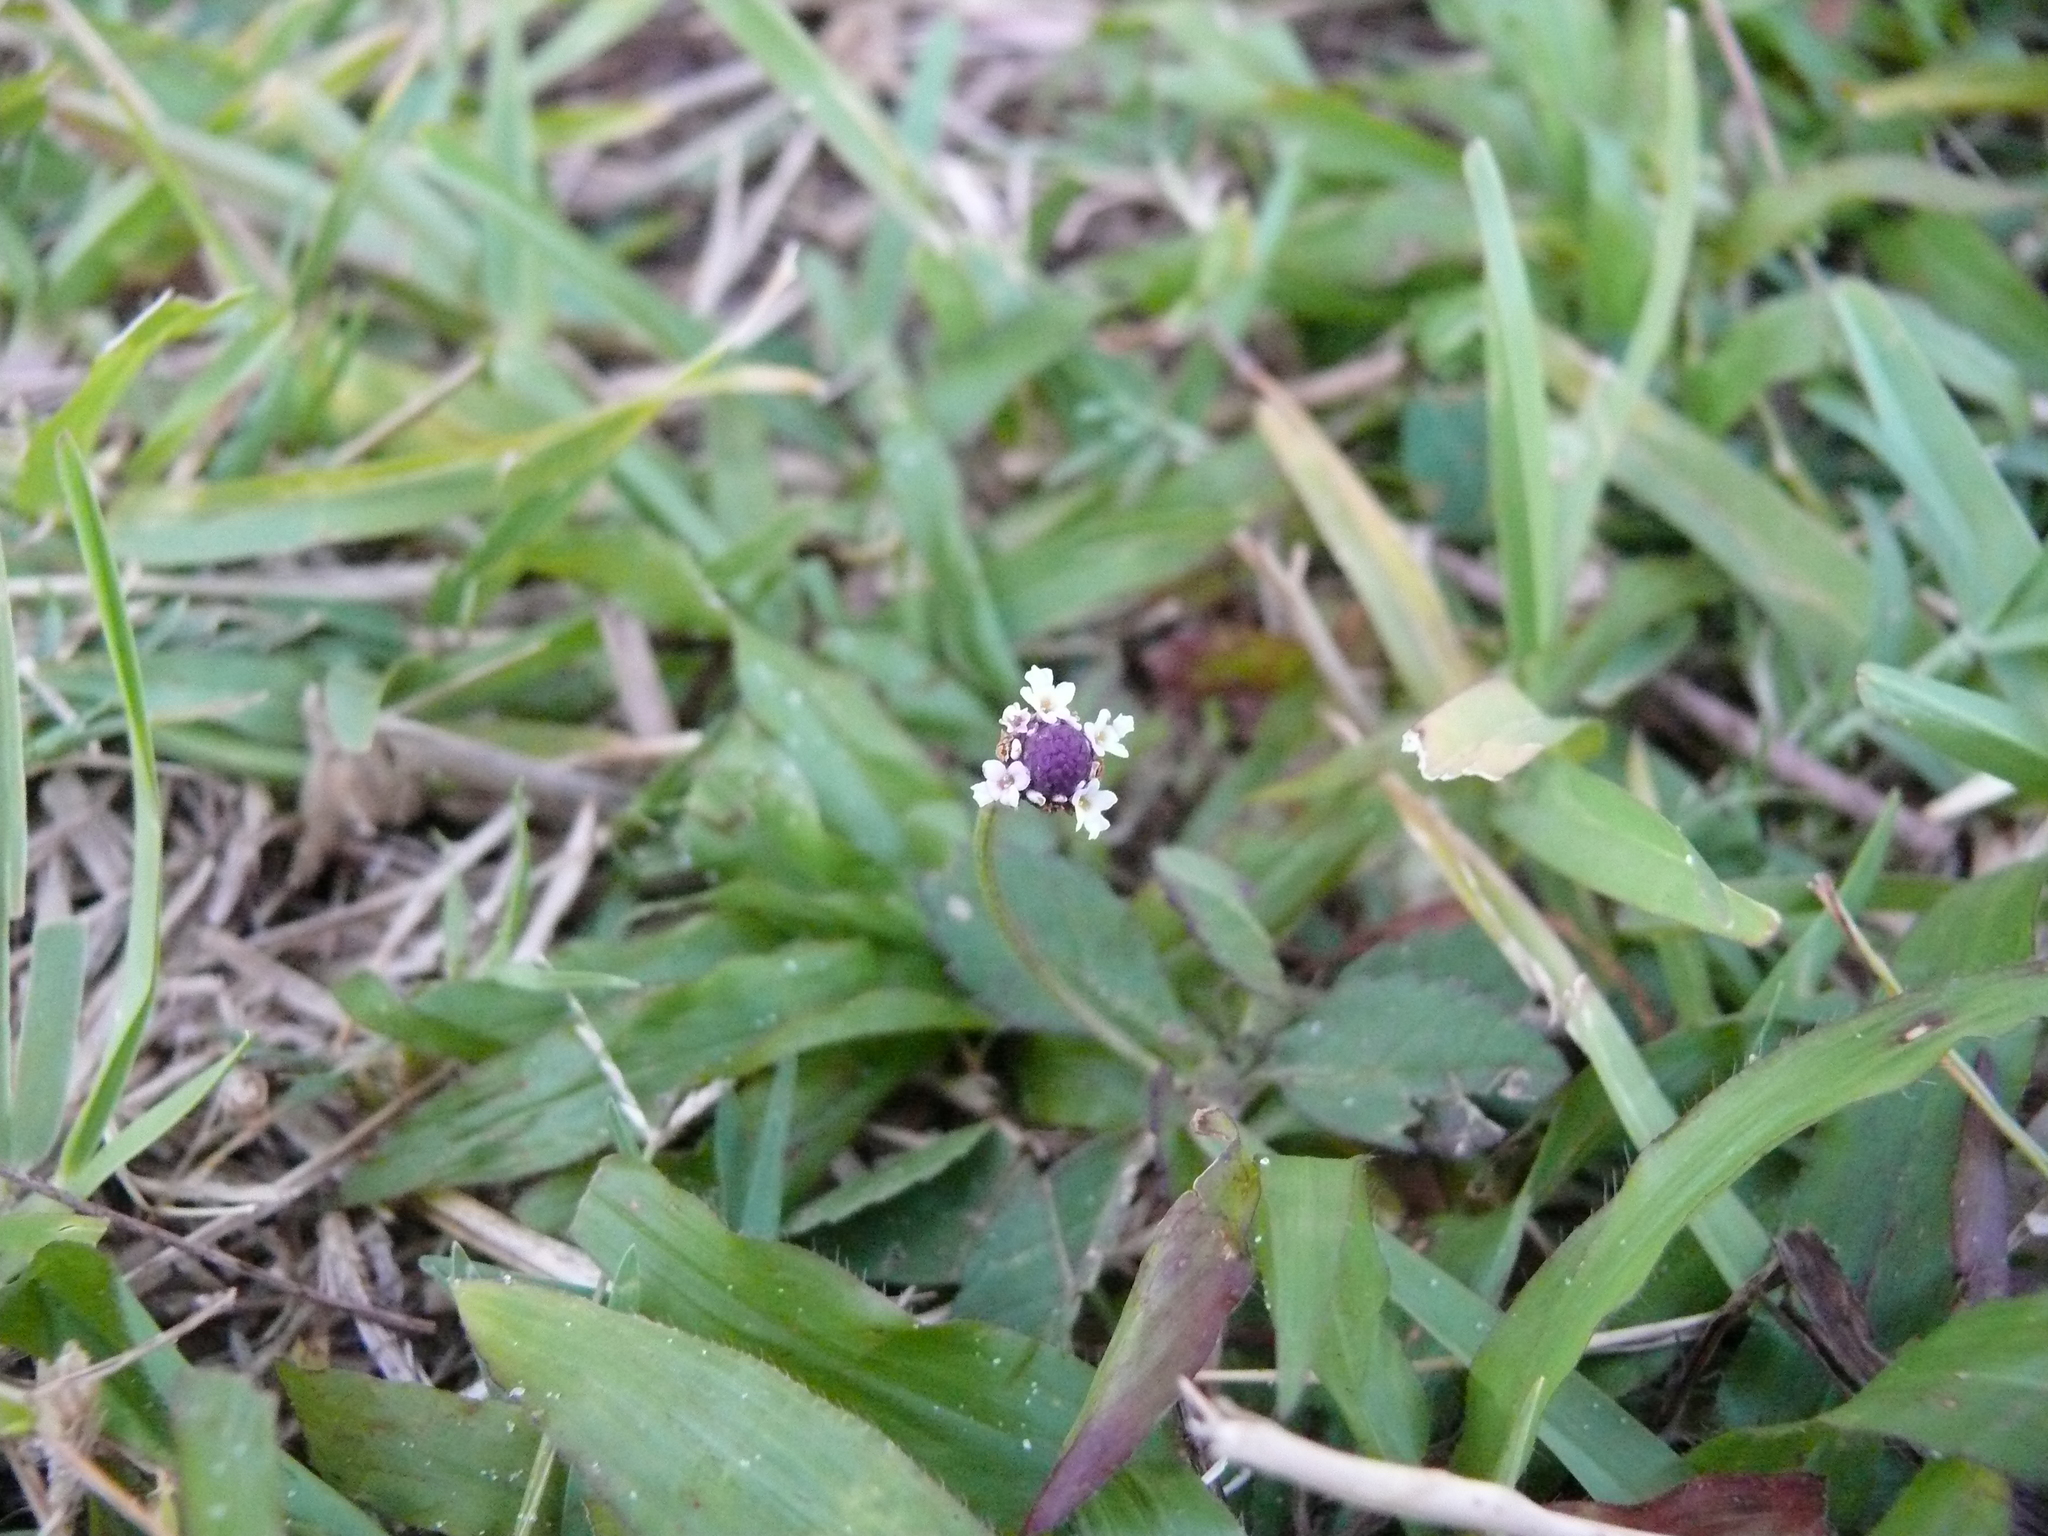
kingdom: Plantae
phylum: Tracheophyta
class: Magnoliopsida
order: Lamiales
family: Verbenaceae
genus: Phyla
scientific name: Phyla nodiflora
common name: Frogfruit
